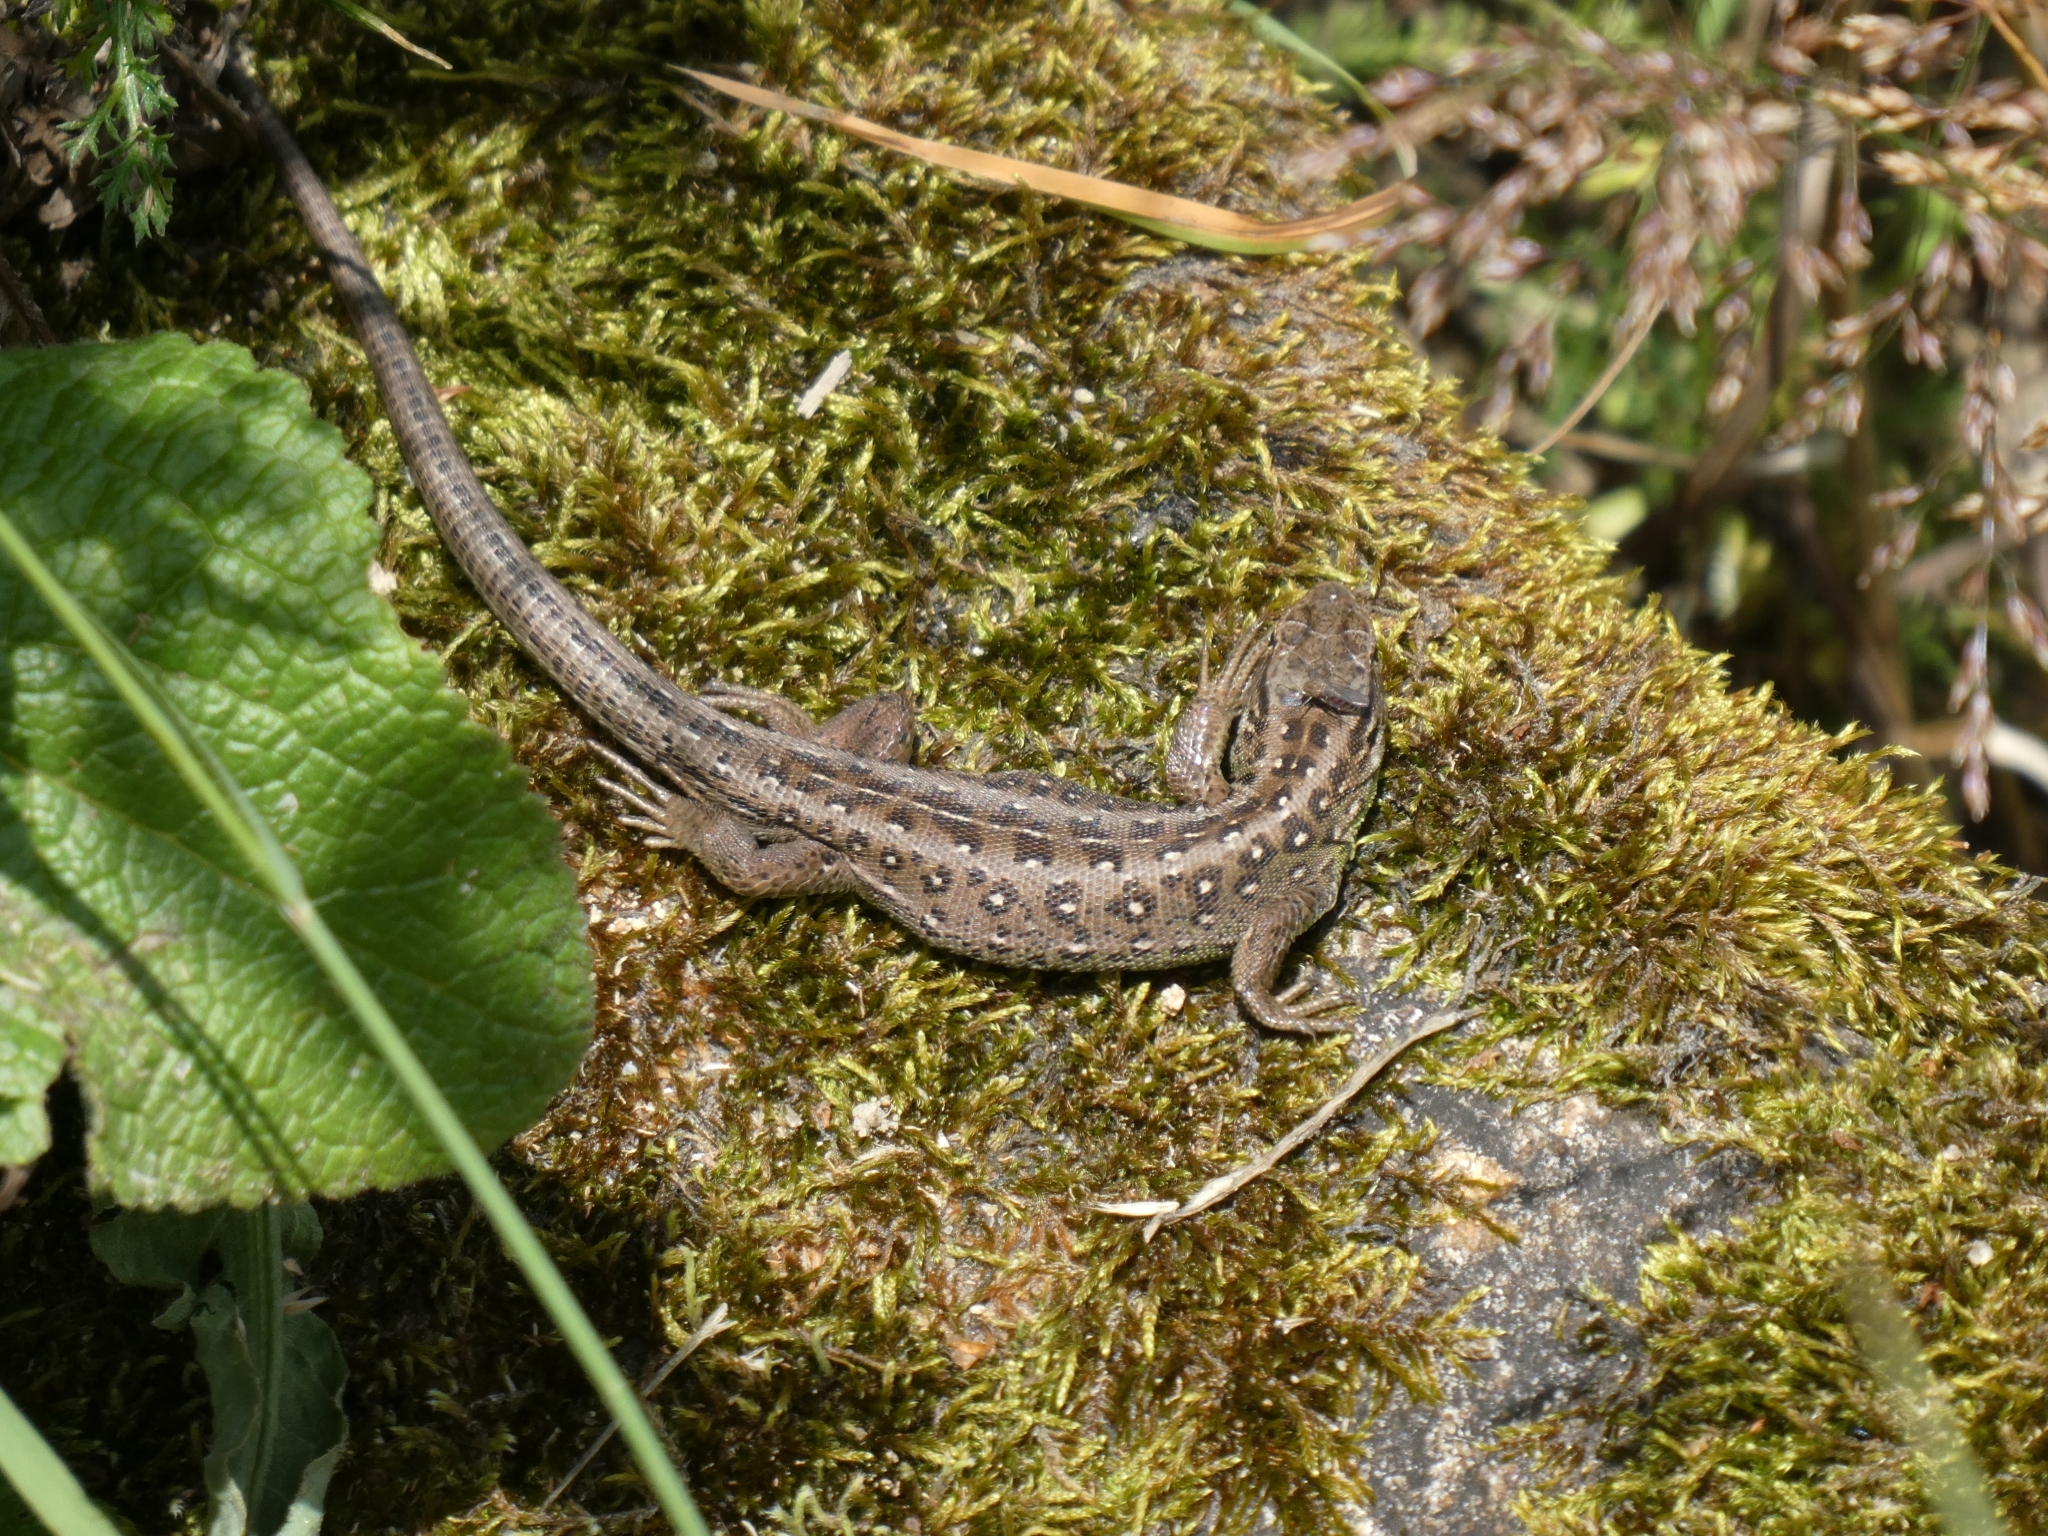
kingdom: Animalia
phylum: Chordata
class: Squamata
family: Lacertidae
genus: Lacerta
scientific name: Lacerta agilis
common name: Sand lizard
